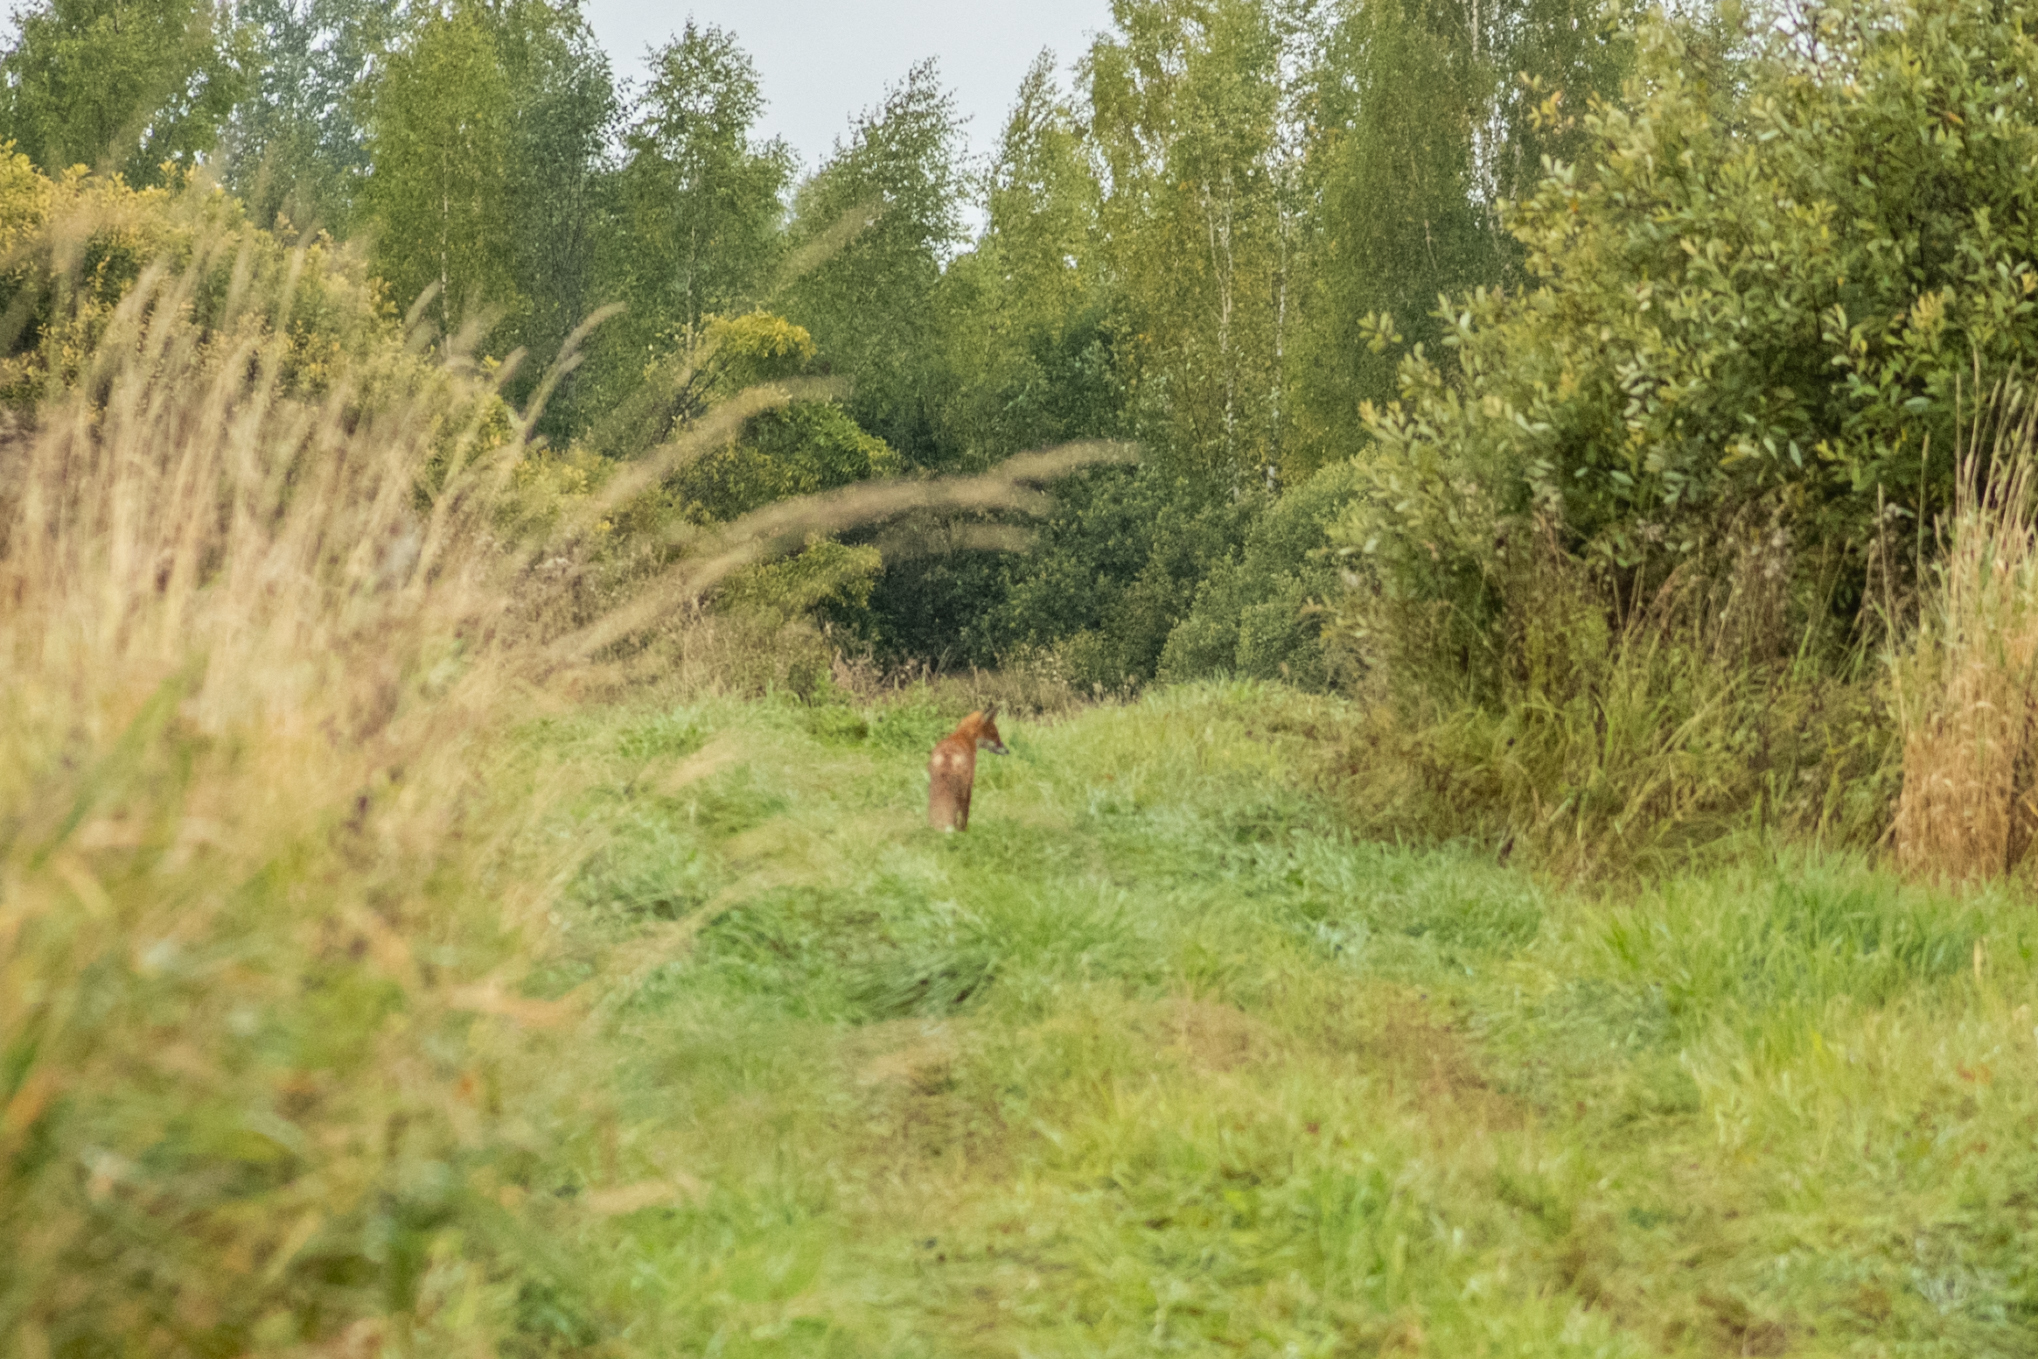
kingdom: Animalia
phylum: Chordata
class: Mammalia
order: Carnivora
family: Canidae
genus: Vulpes
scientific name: Vulpes vulpes
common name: Red fox
